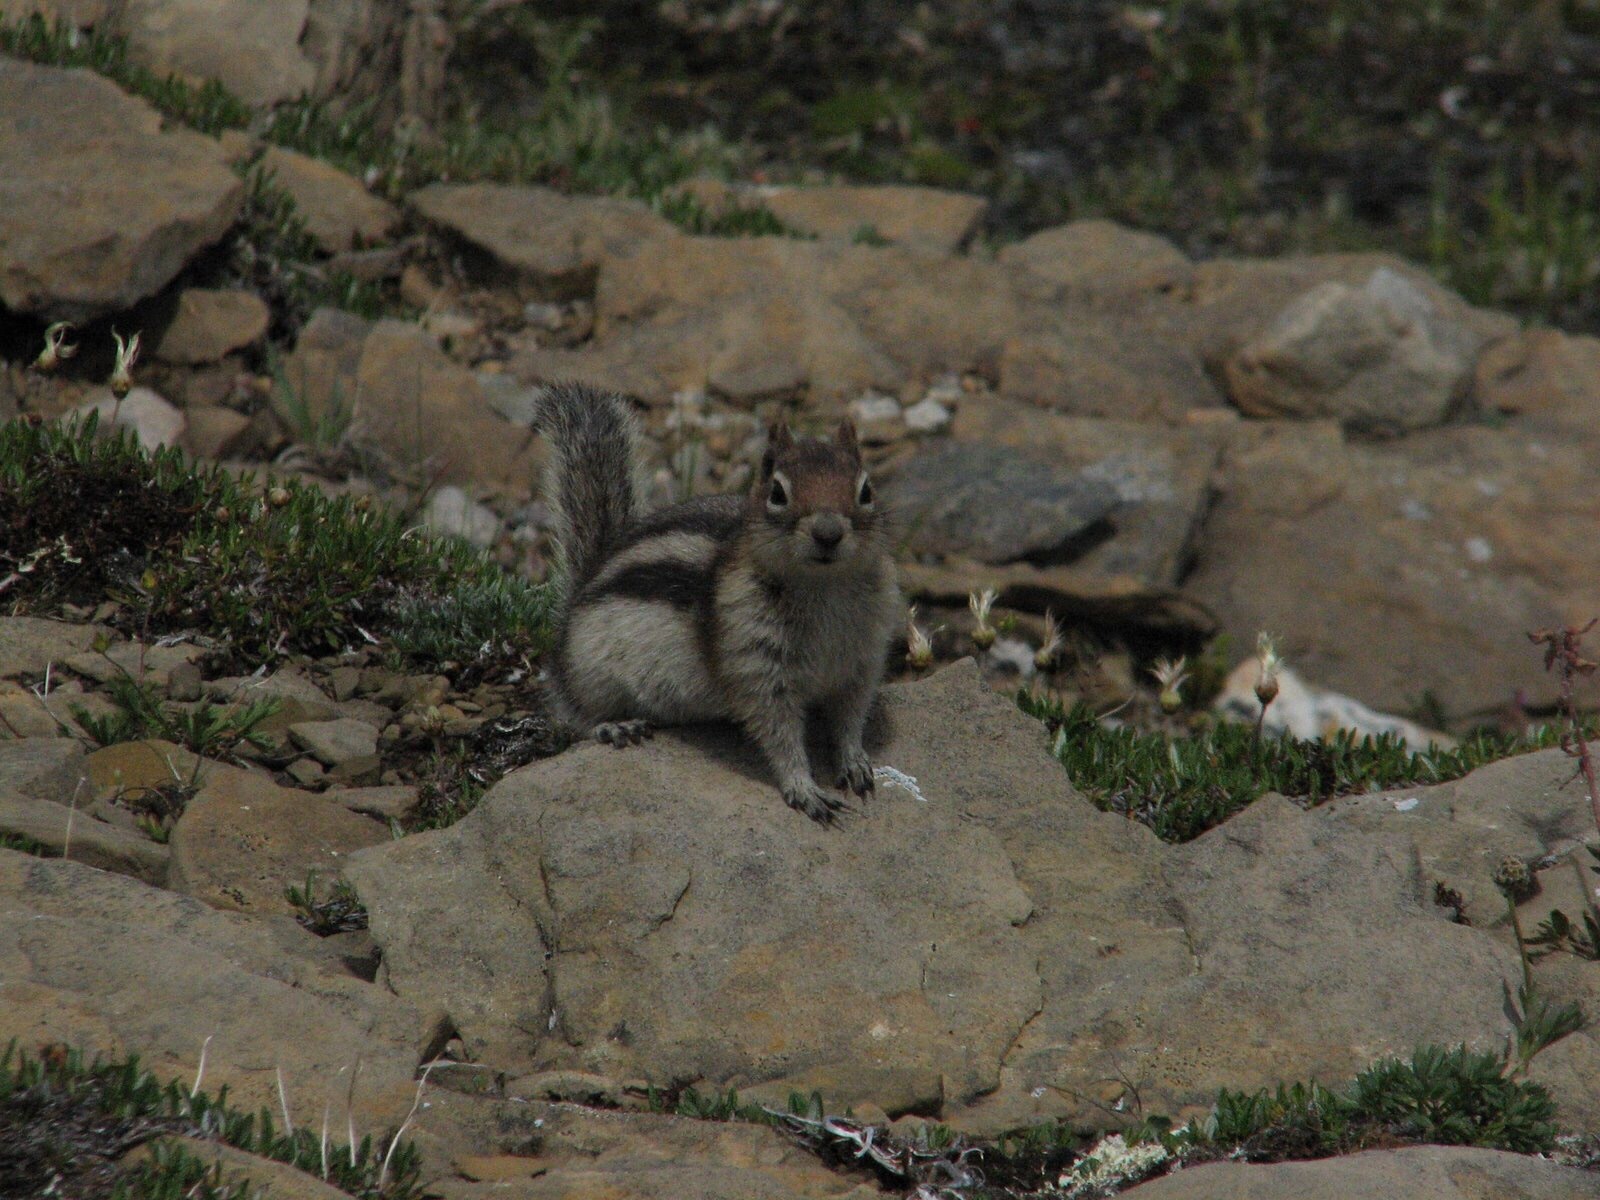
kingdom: Animalia
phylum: Chordata
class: Mammalia
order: Rodentia
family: Sciuridae
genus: Callospermophilus
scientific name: Callospermophilus lateralis
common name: Golden-mantled ground squirrel
